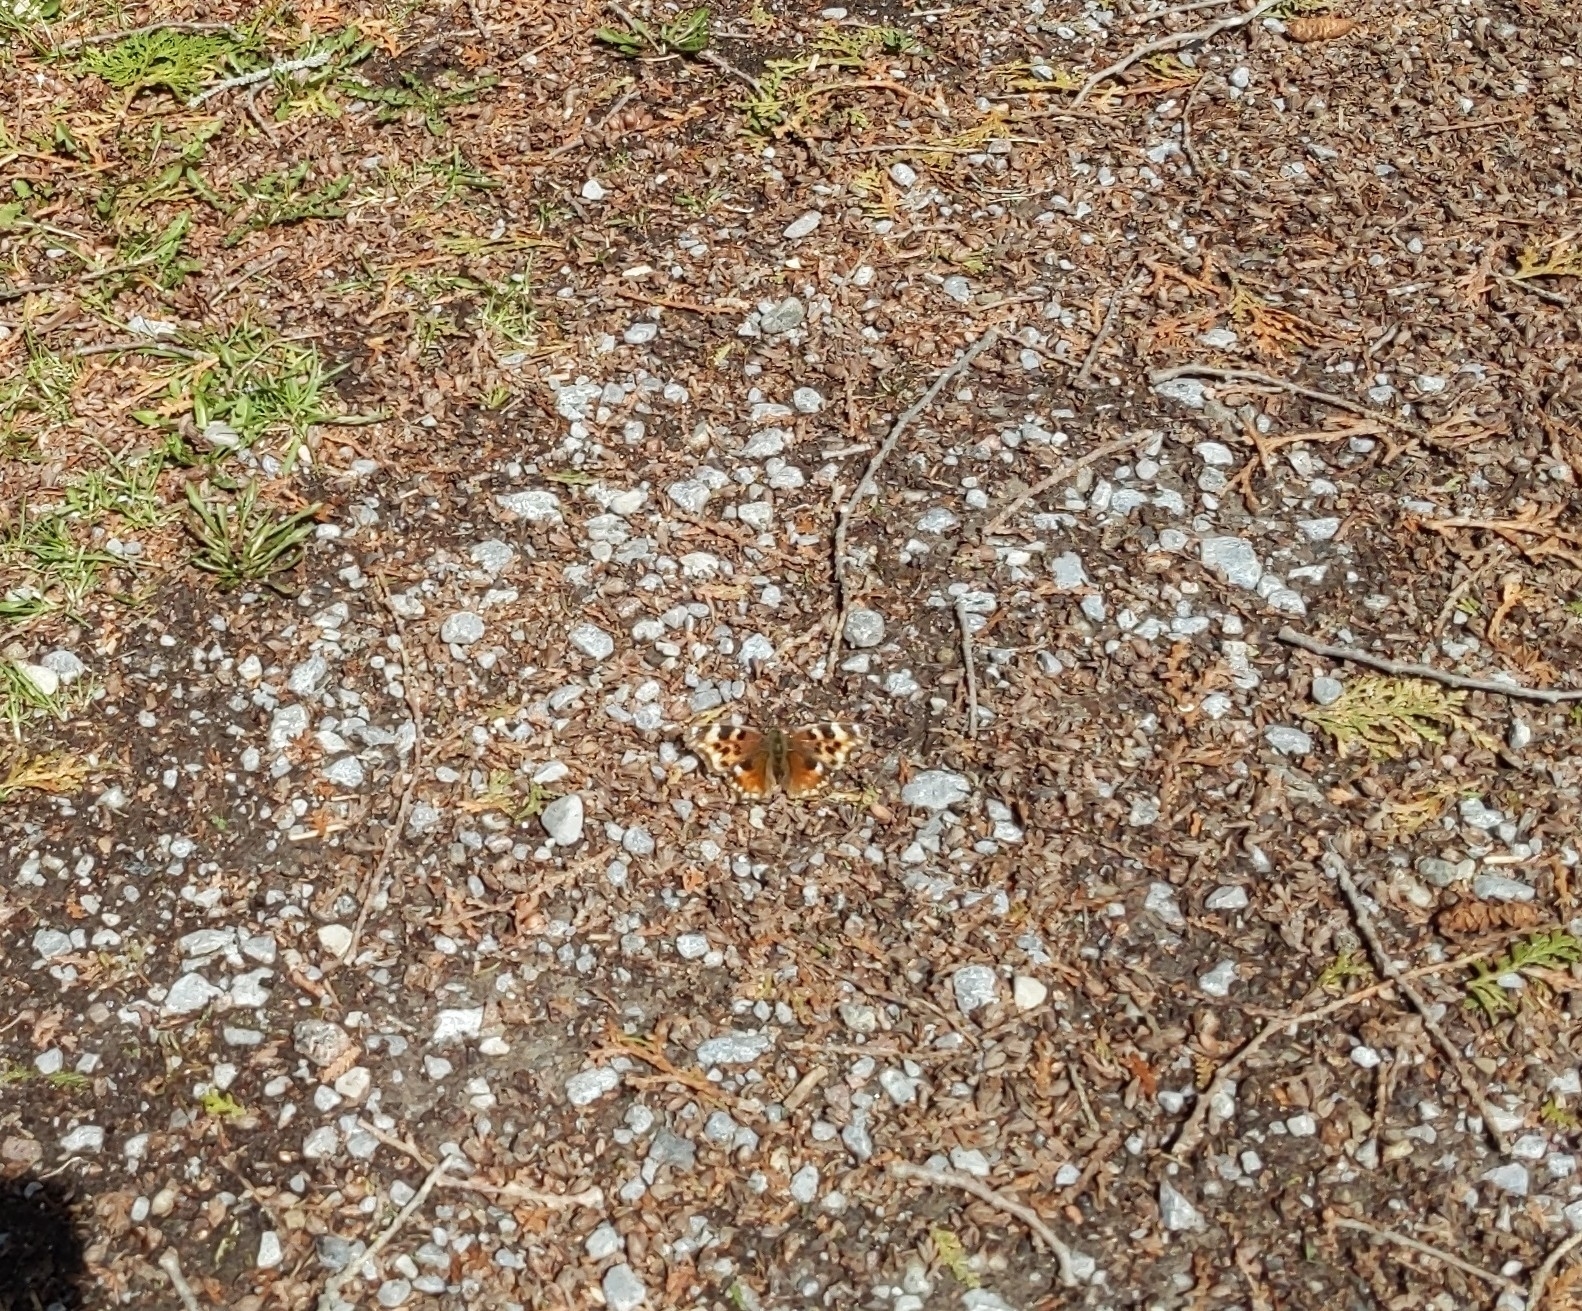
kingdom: Animalia
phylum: Arthropoda
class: Insecta
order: Lepidoptera
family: Nymphalidae
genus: Polygonia
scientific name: Polygonia vaualbum
